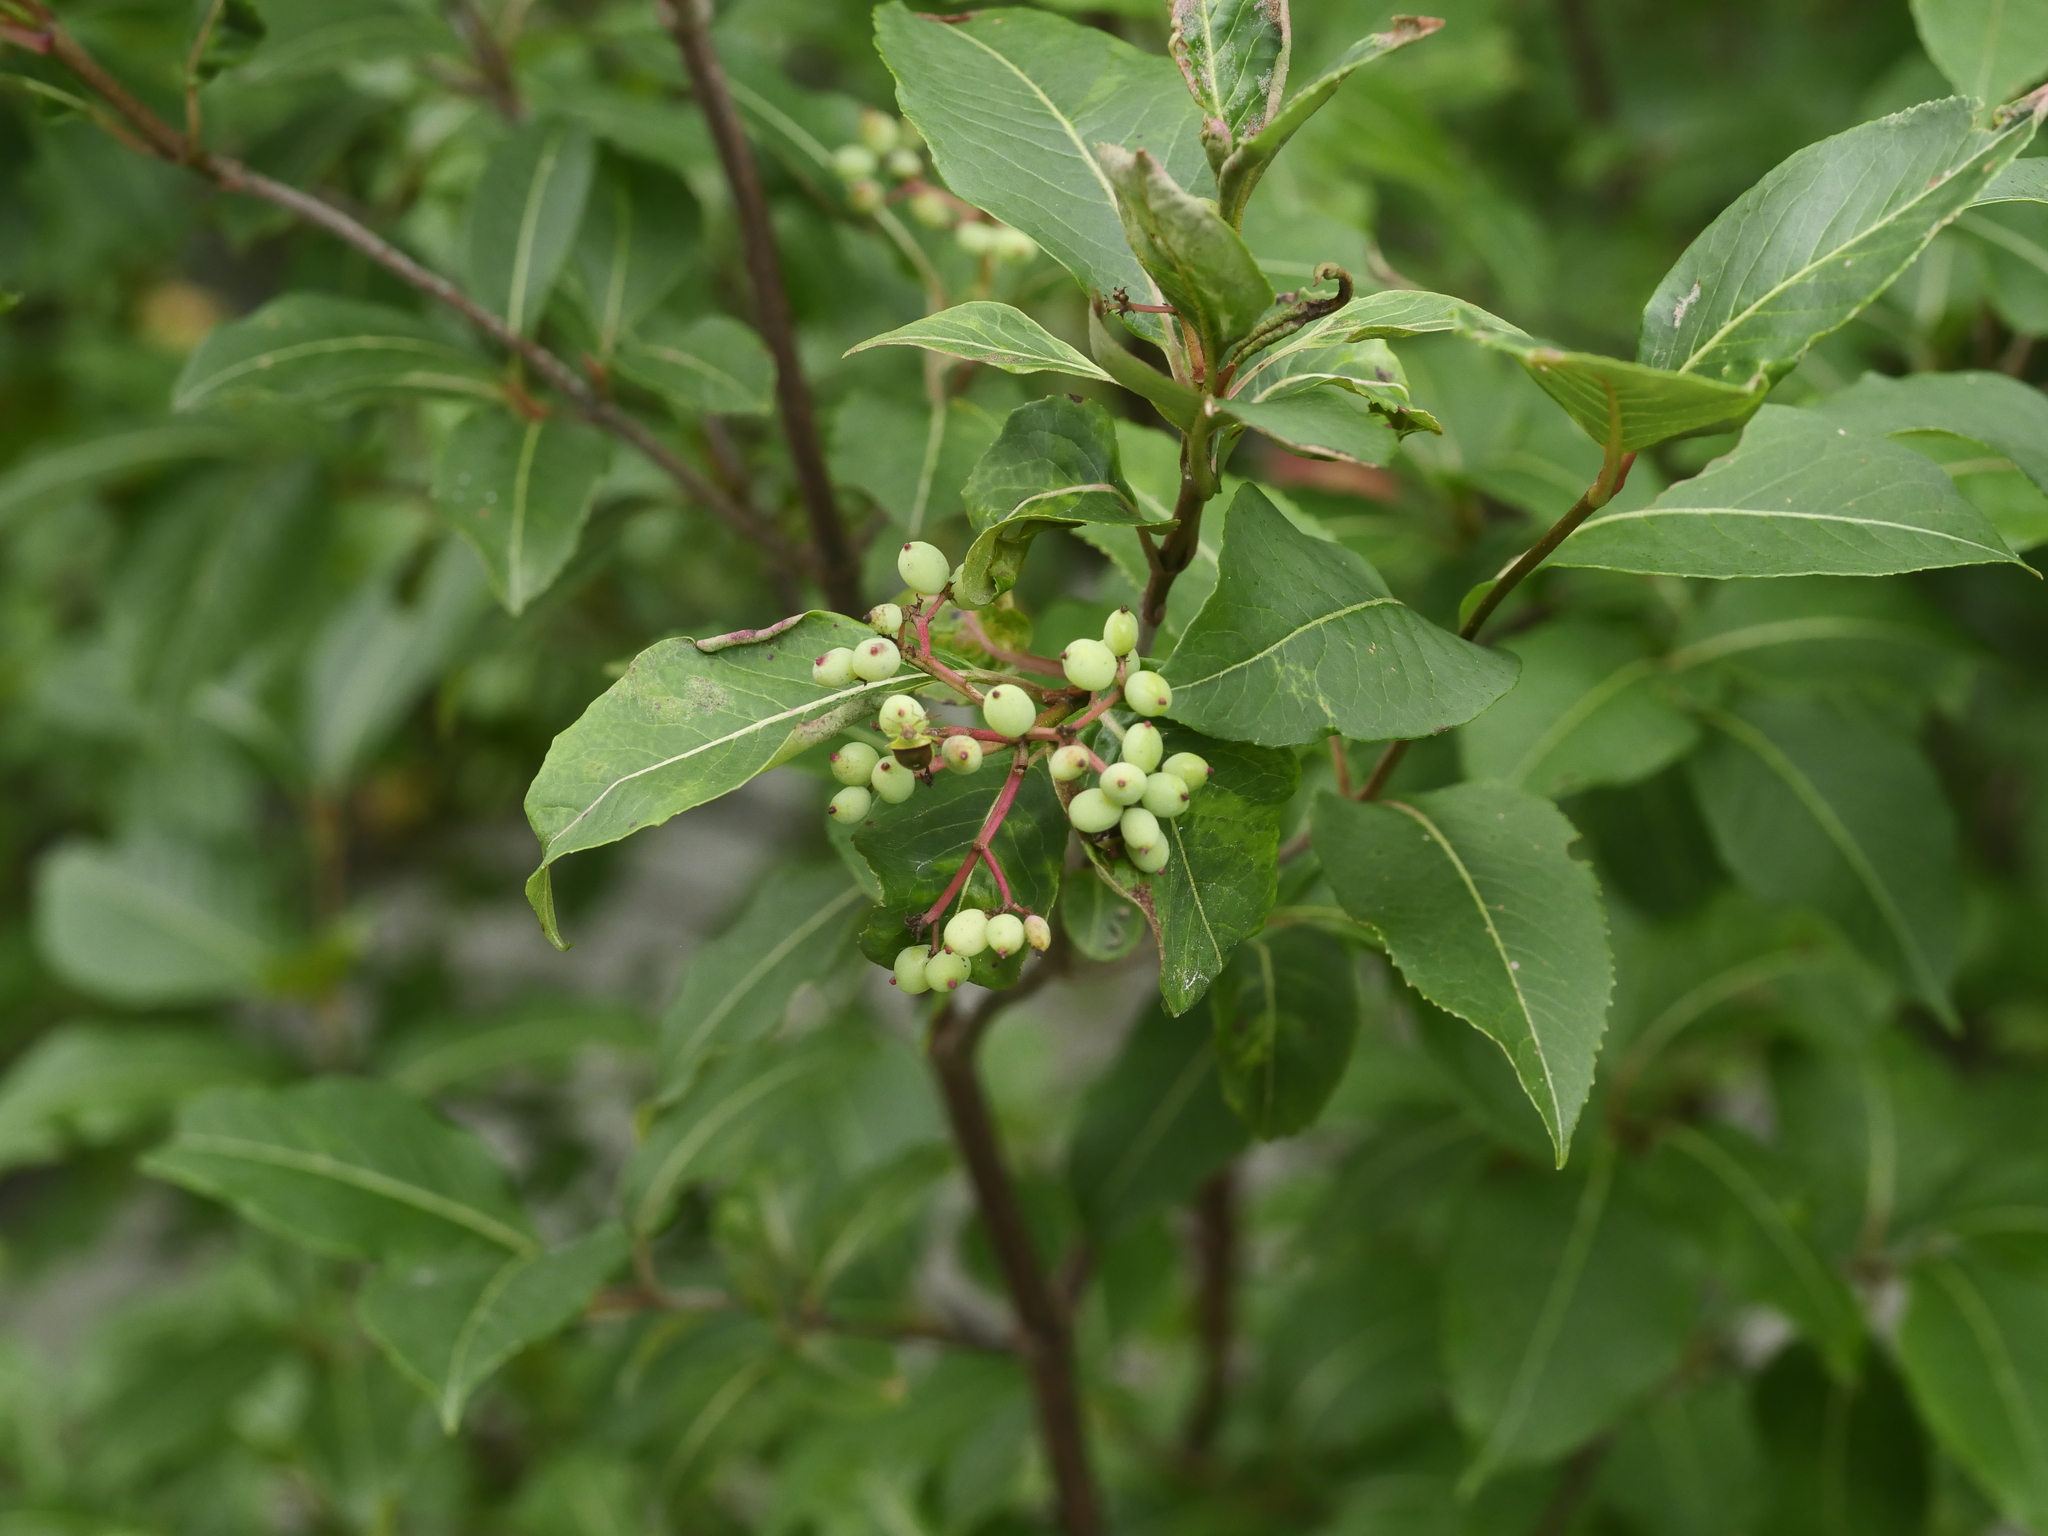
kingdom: Plantae
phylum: Tracheophyta
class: Magnoliopsida
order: Dipsacales
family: Viburnaceae
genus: Viburnum
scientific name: Viburnum cassinoides
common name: Swamp haw
